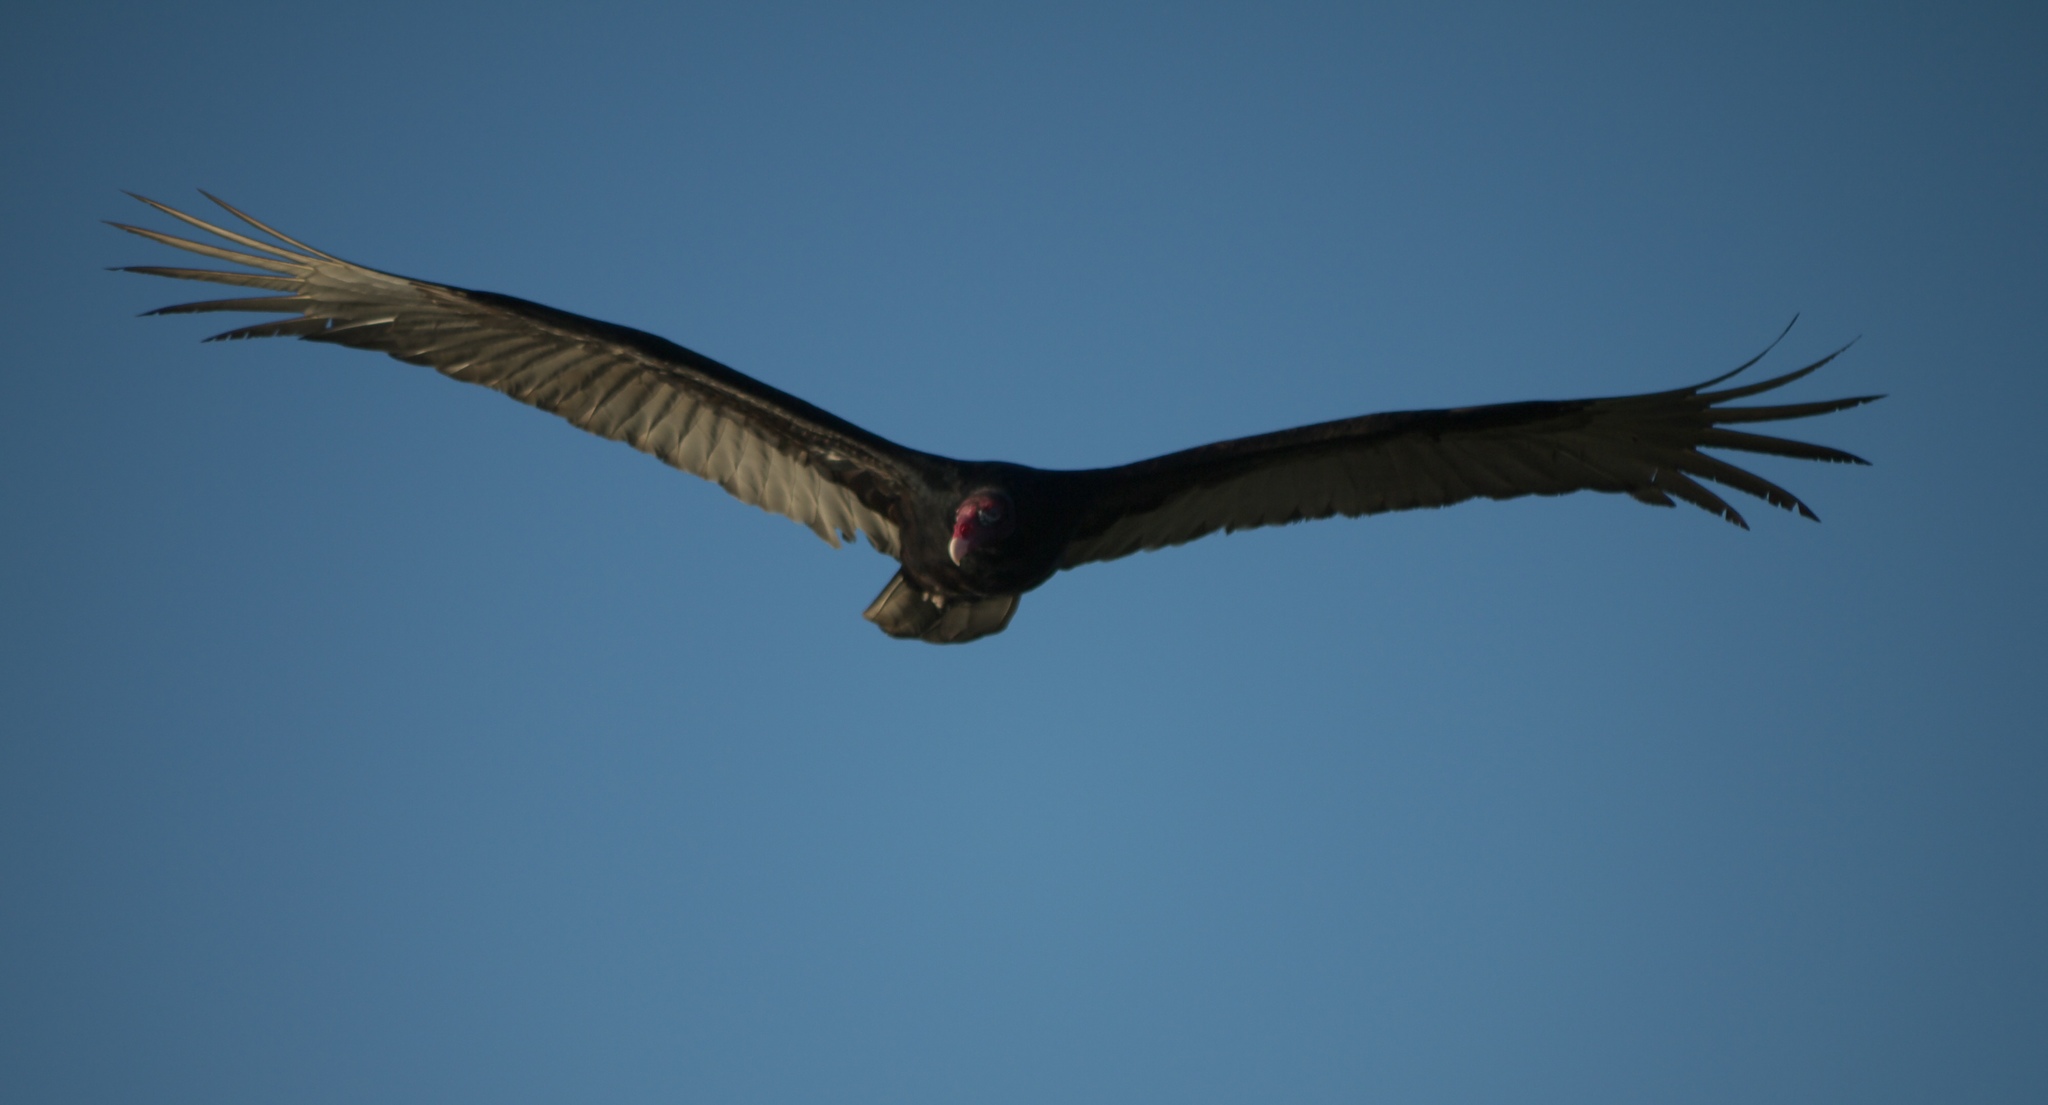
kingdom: Animalia
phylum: Chordata
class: Aves
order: Accipitriformes
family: Cathartidae
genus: Cathartes
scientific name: Cathartes aura
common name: Turkey vulture
